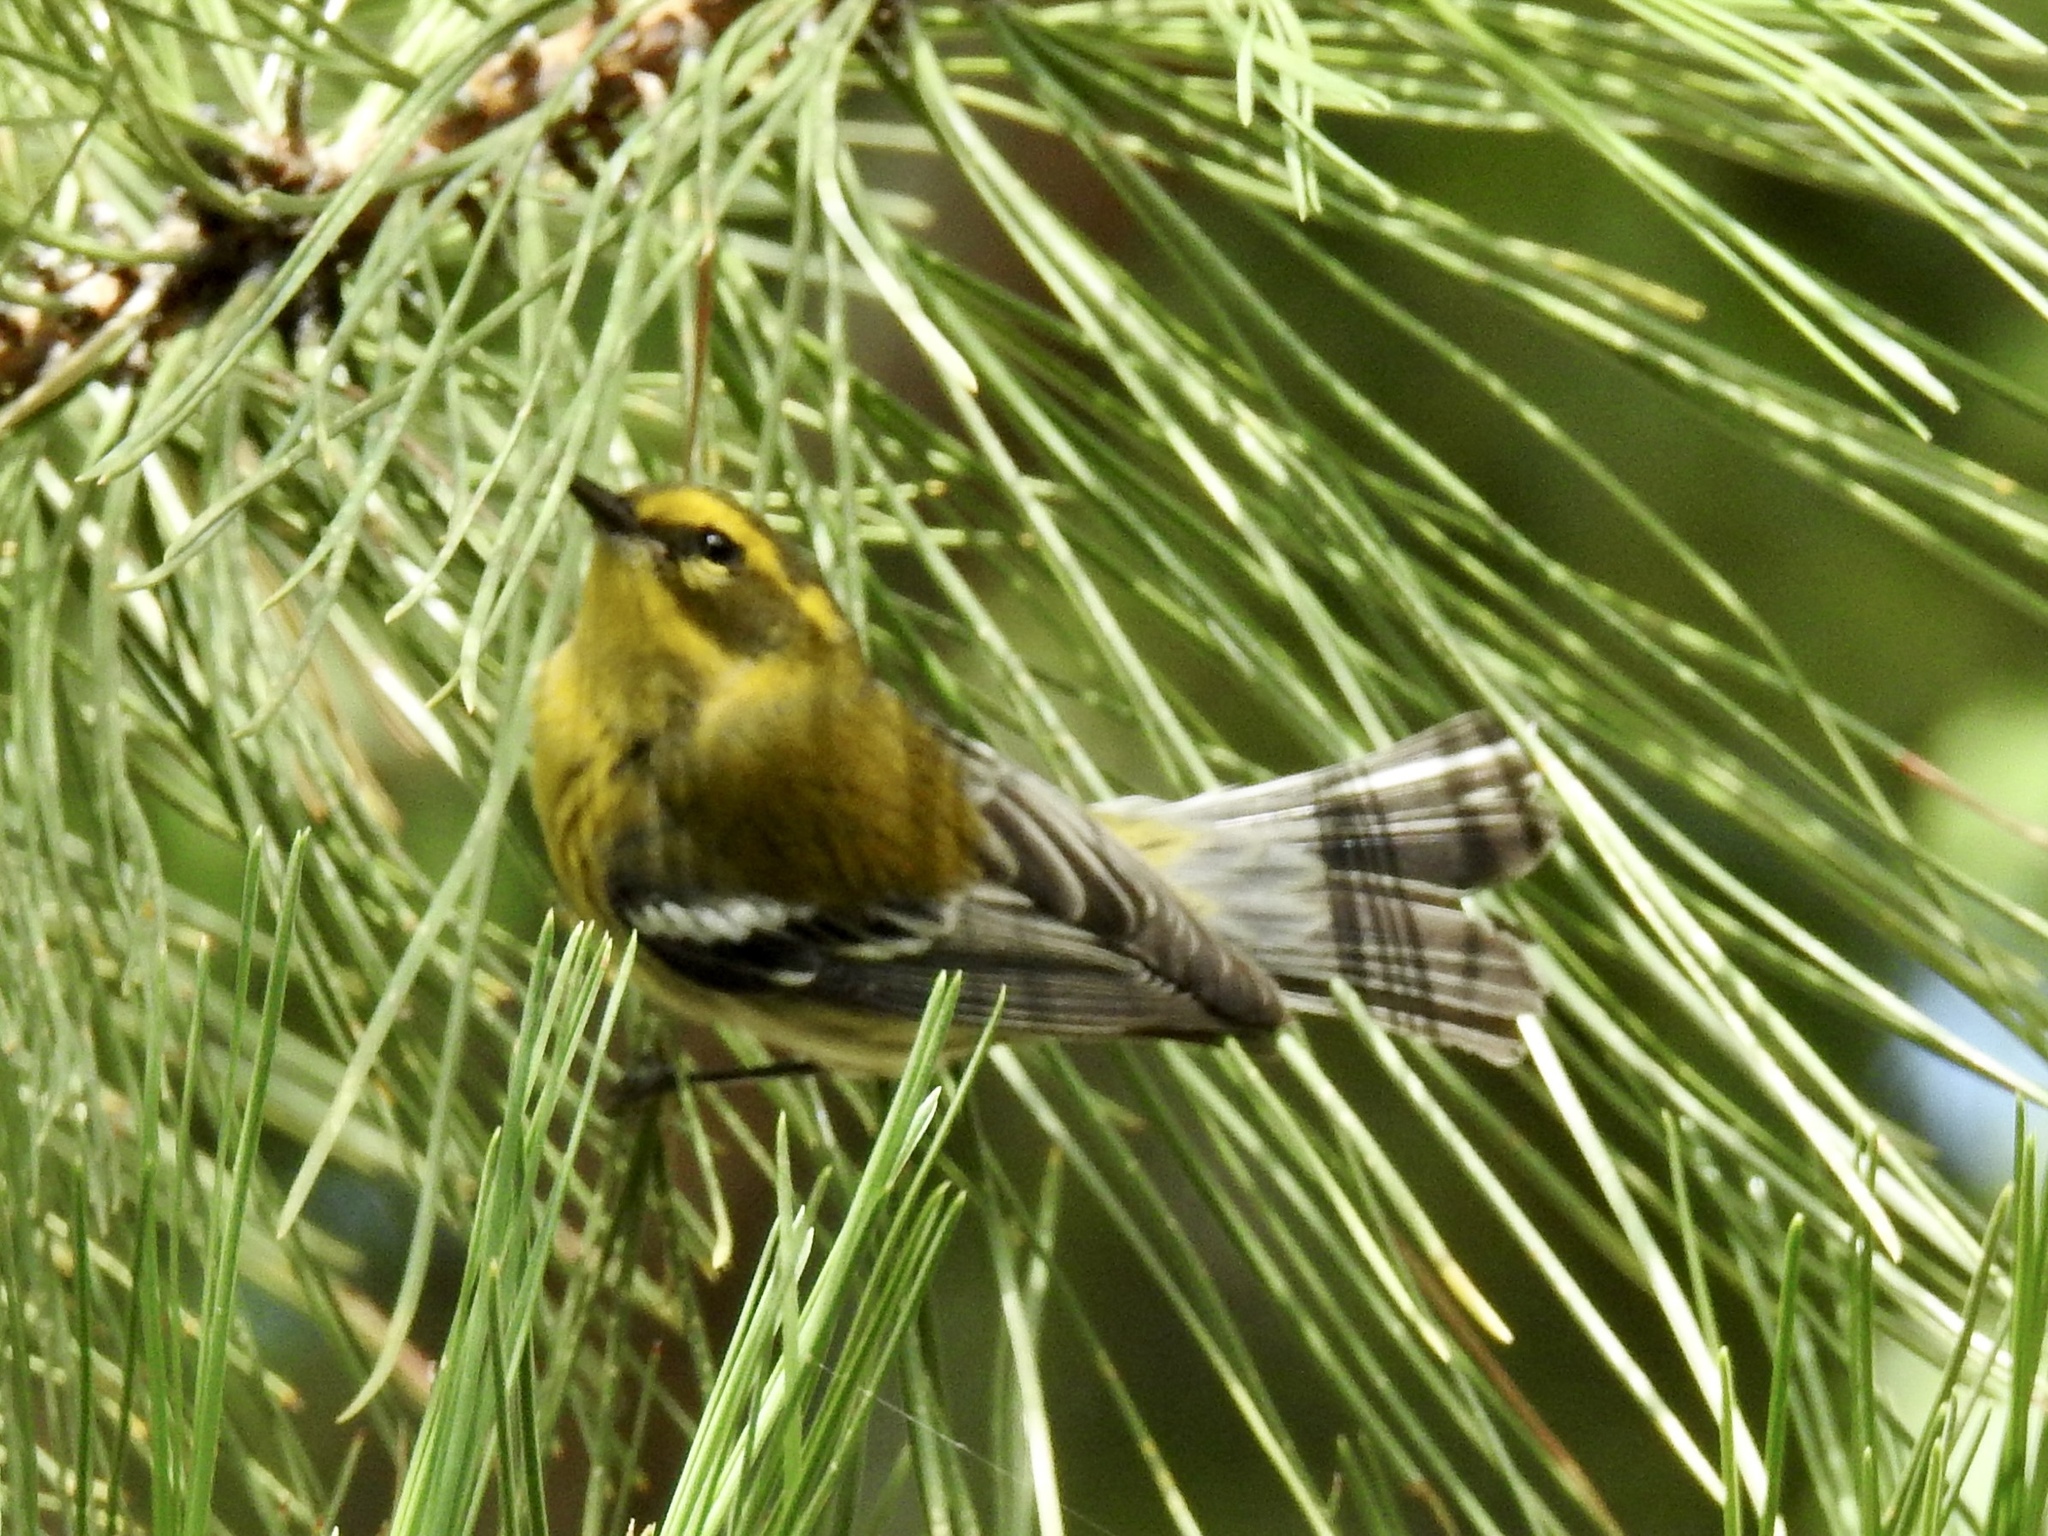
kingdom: Animalia
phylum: Chordata
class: Aves
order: Passeriformes
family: Parulidae
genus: Setophaga
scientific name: Setophaga townsendi
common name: Townsend's warbler
